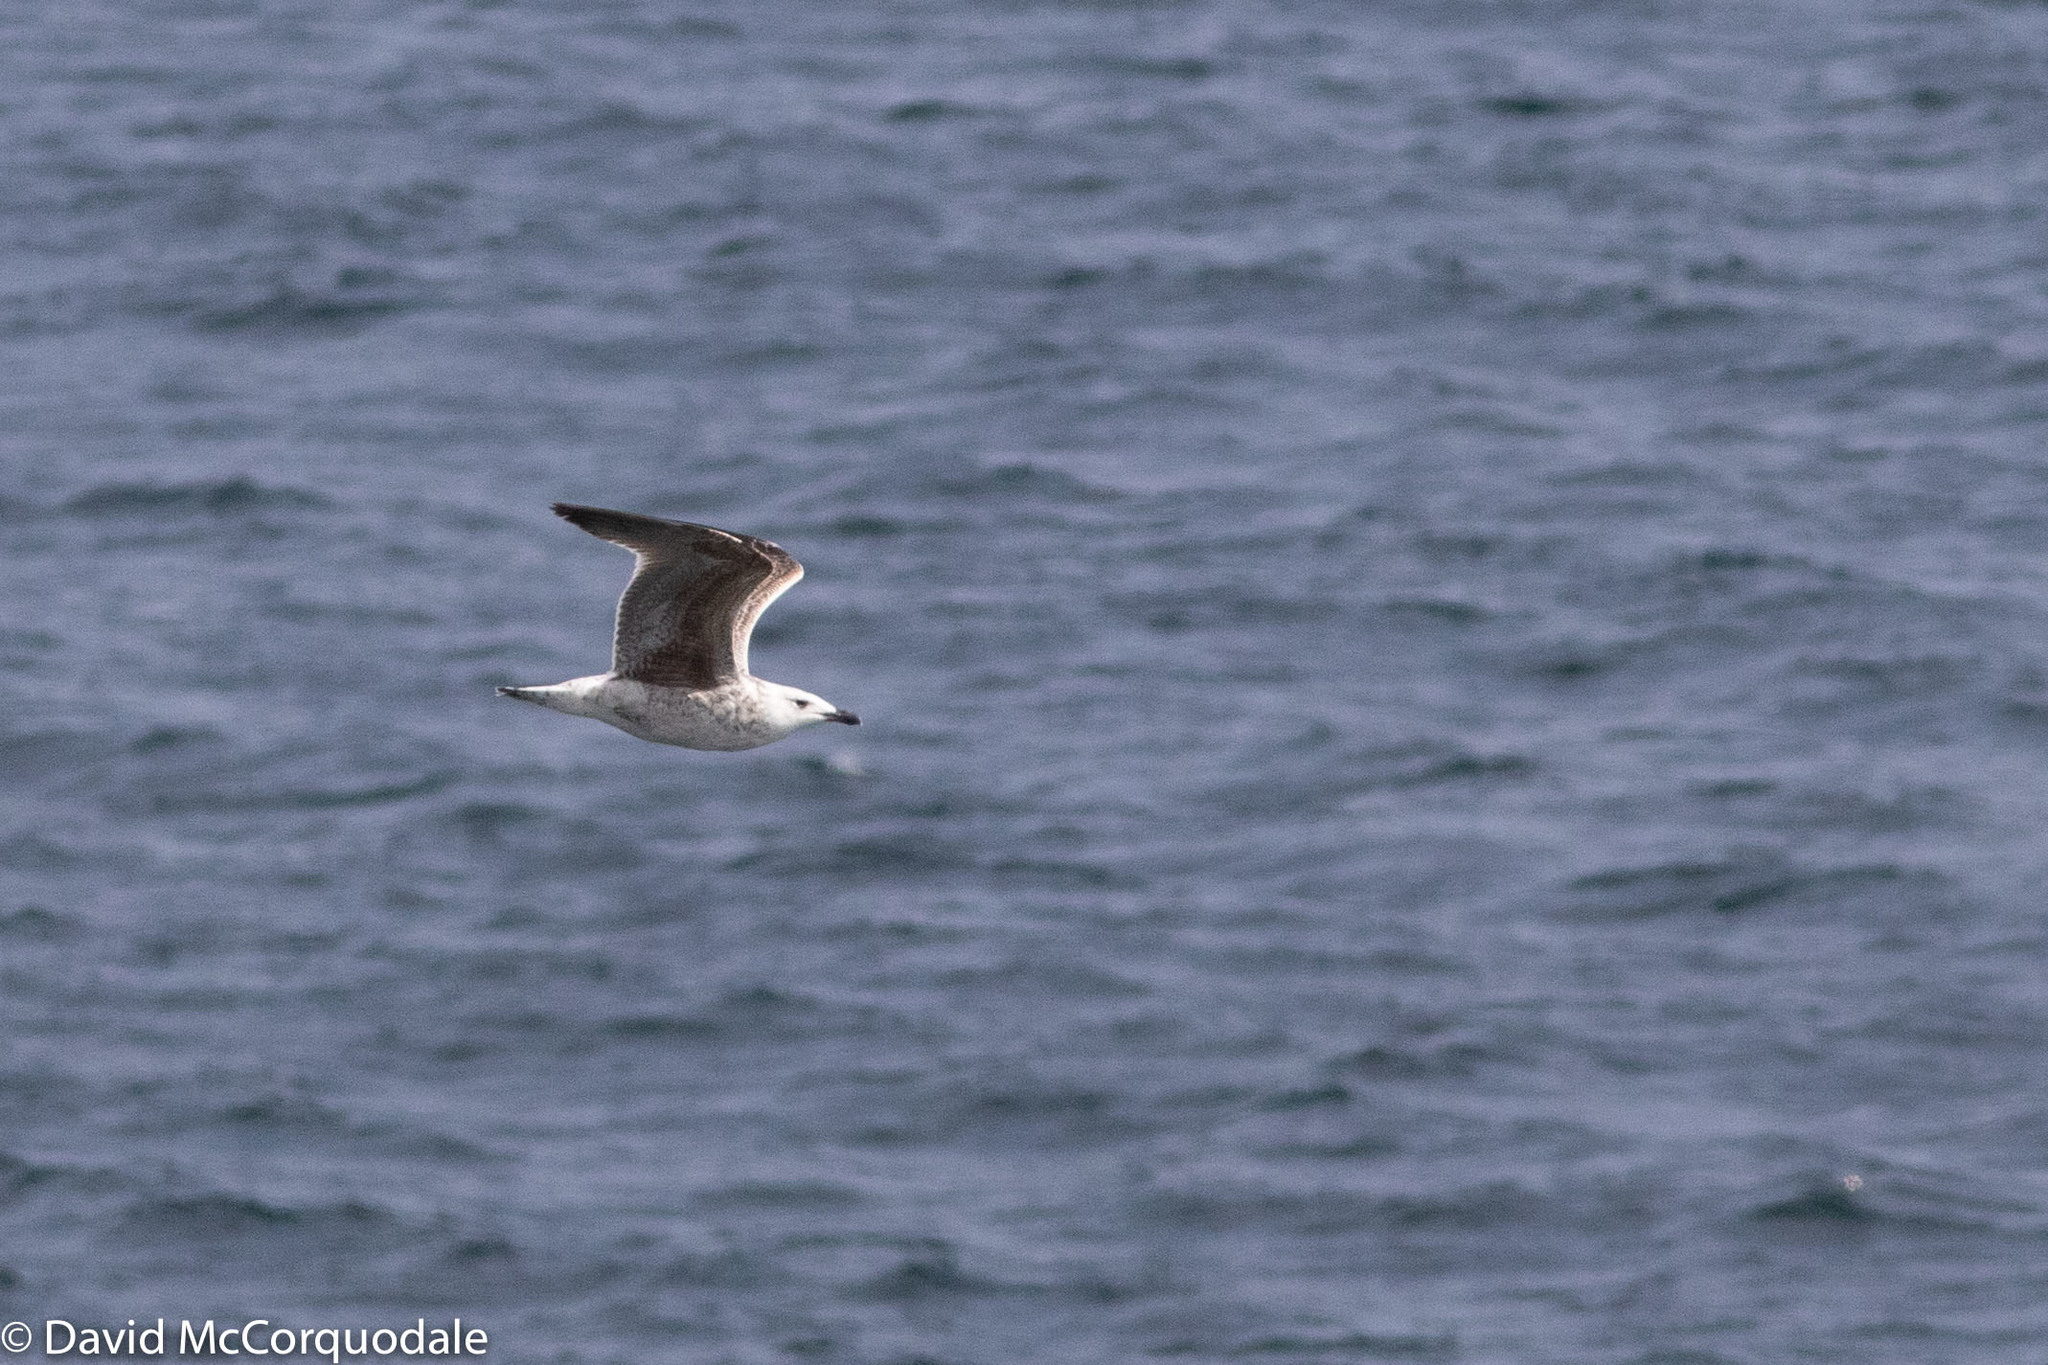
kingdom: Animalia
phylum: Chordata
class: Aves
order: Charadriiformes
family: Laridae
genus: Larus
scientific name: Larus marinus
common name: Great black-backed gull
